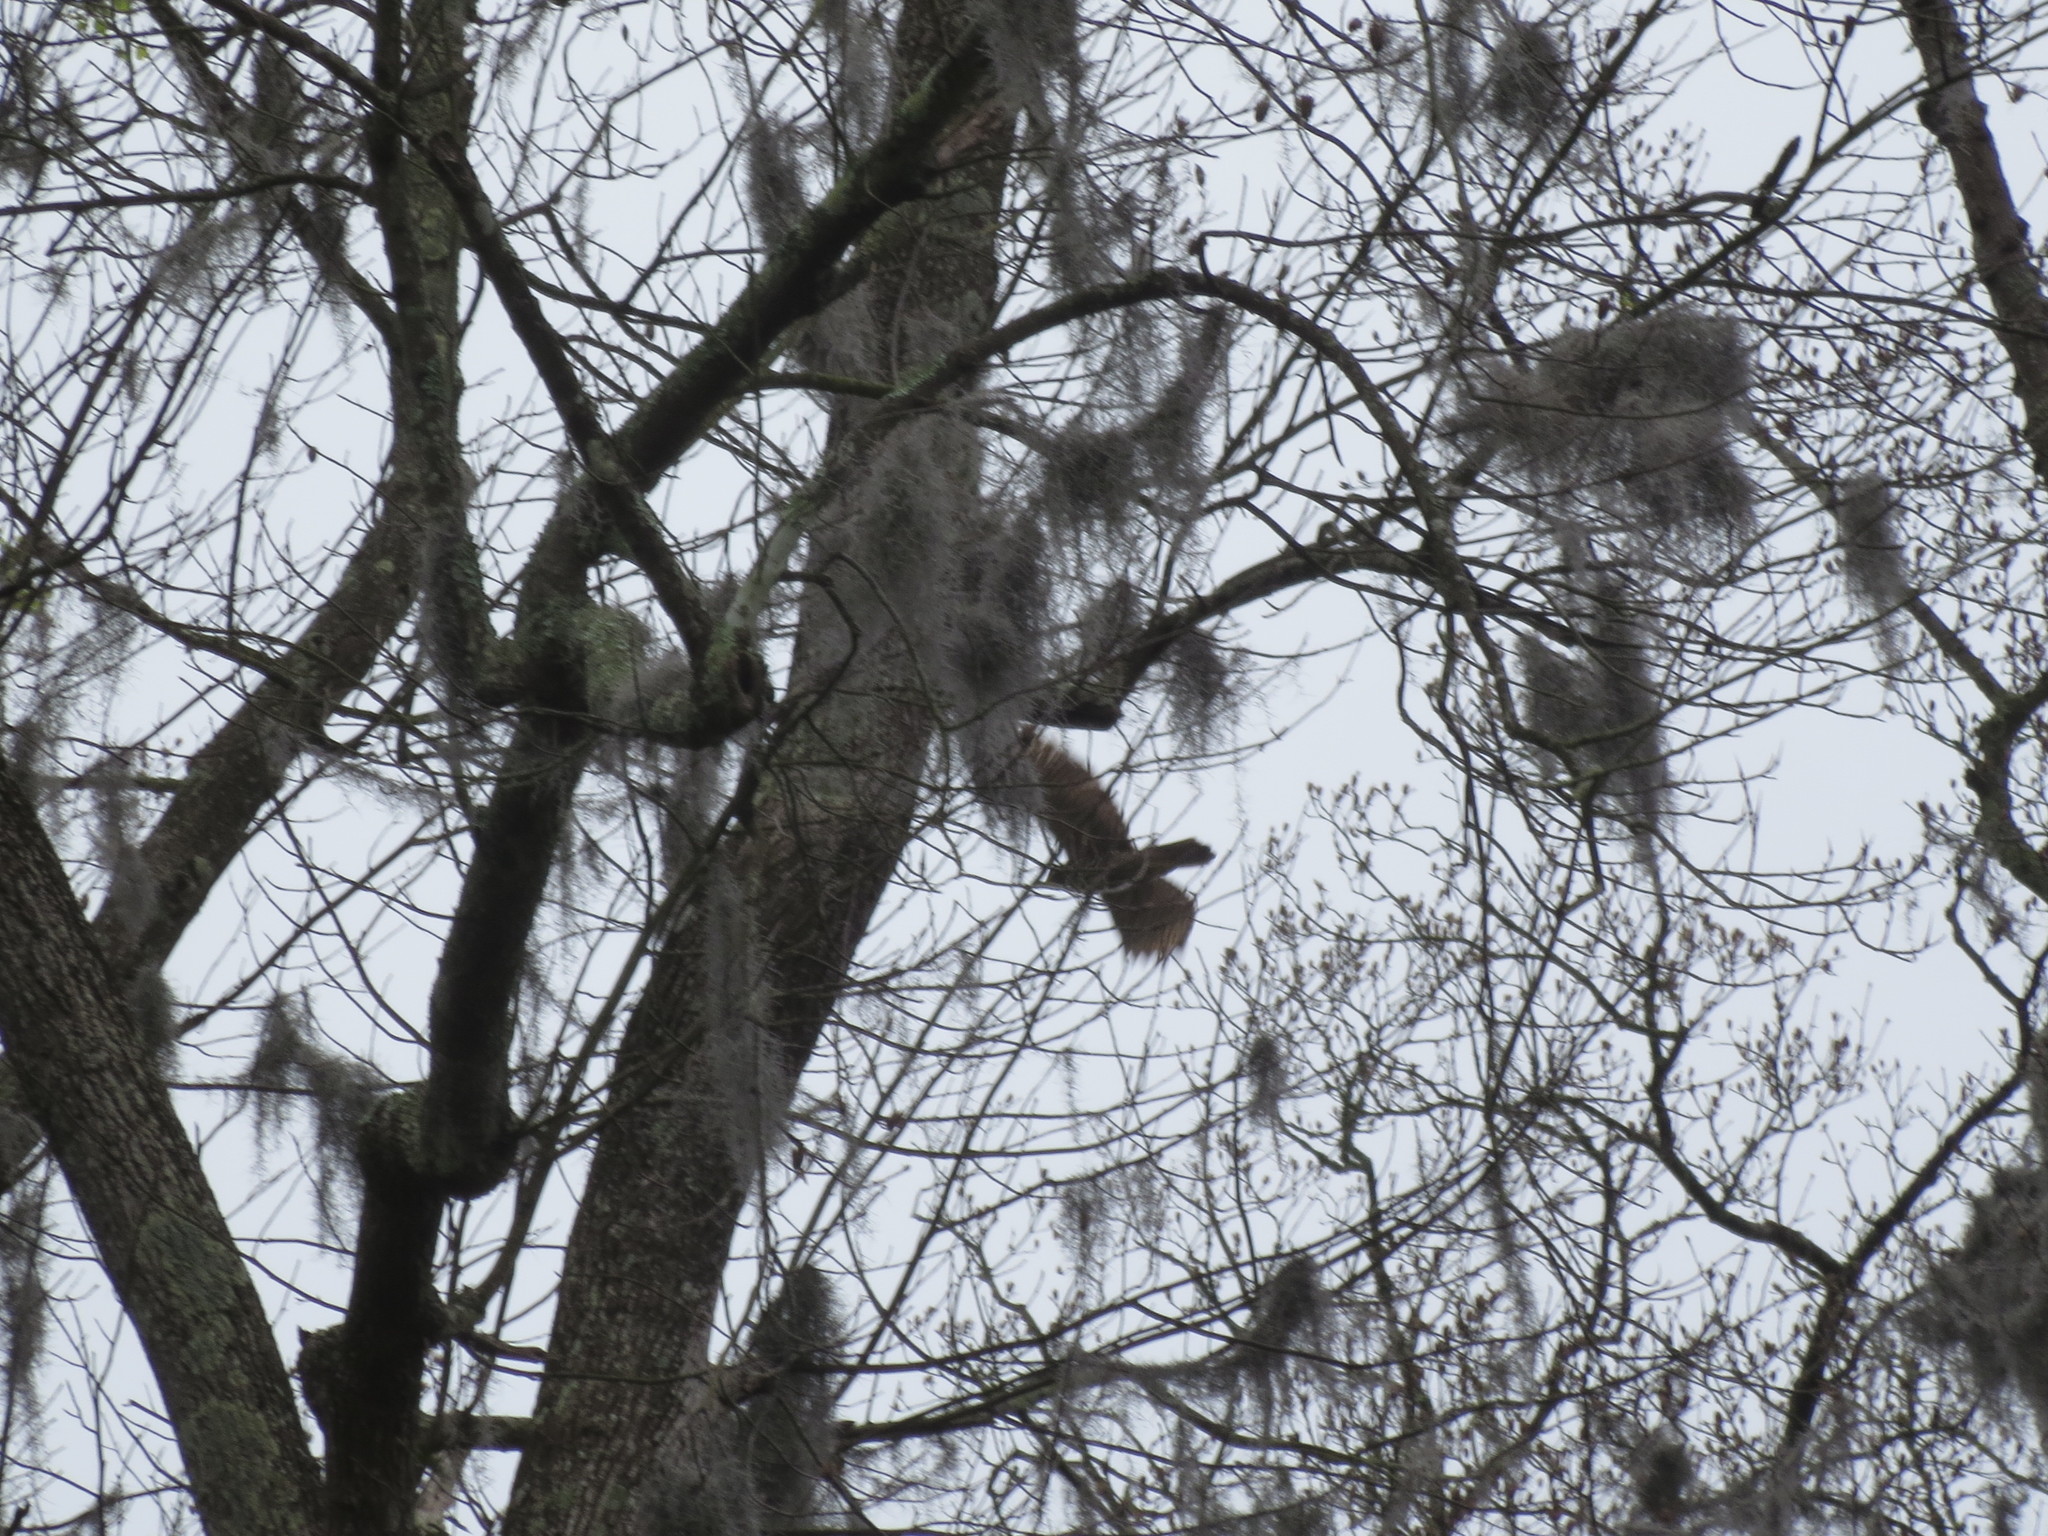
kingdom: Animalia
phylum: Chordata
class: Aves
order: Accipitriformes
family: Accipitridae
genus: Buteo
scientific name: Buteo lineatus
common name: Red-shouldered hawk
